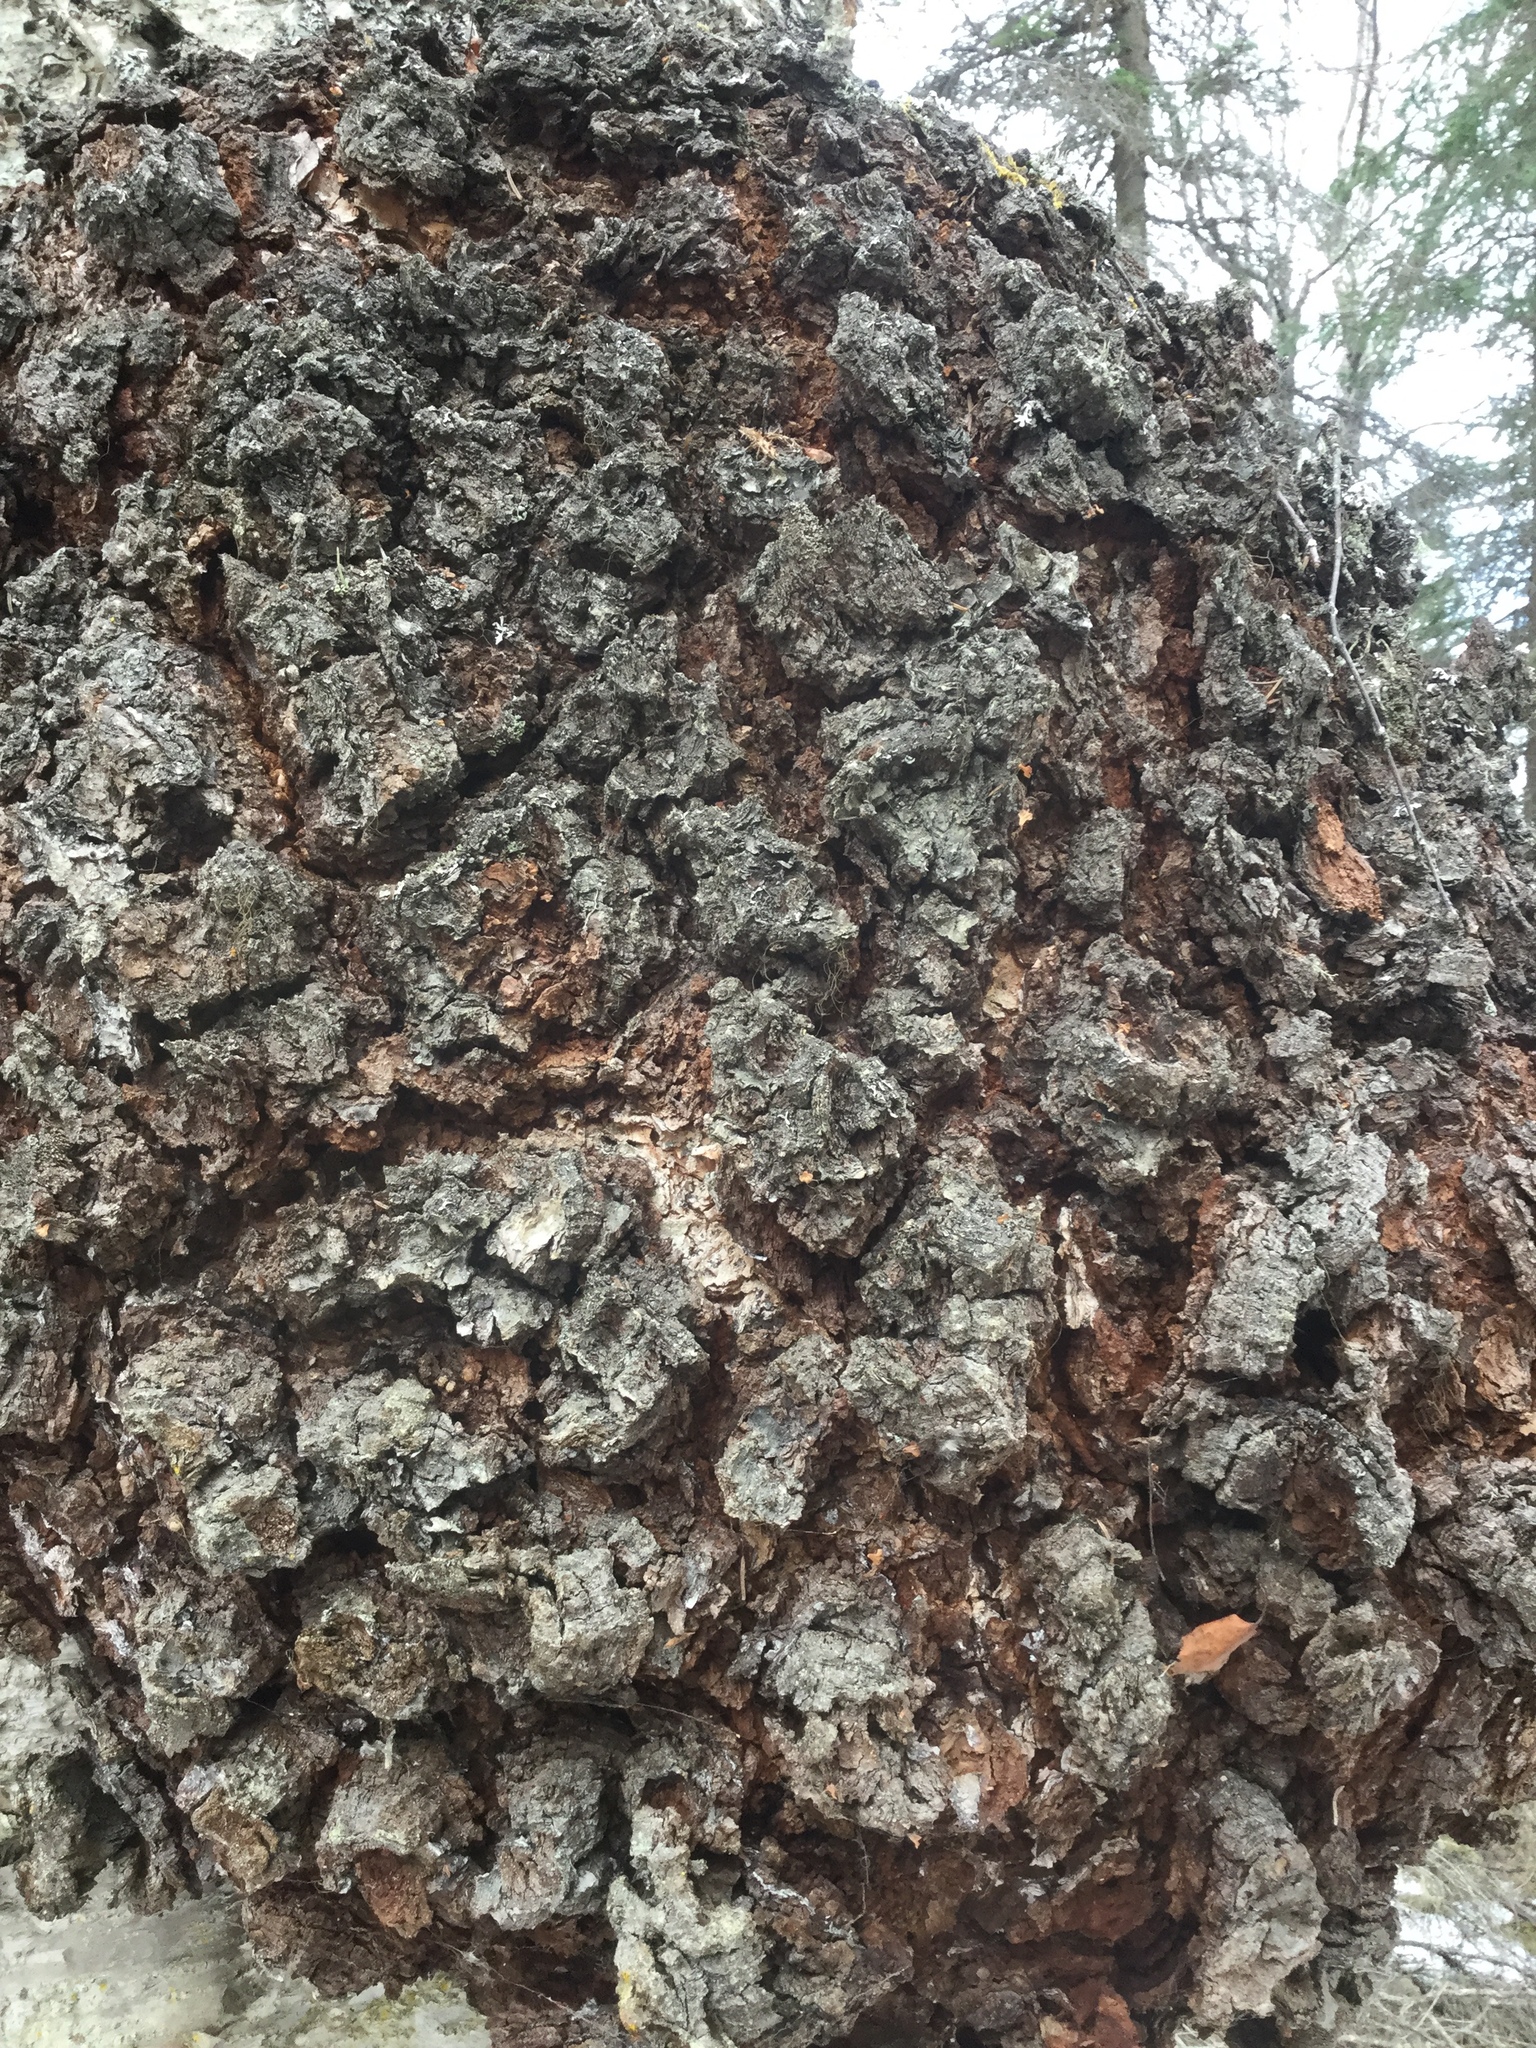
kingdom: Bacteria
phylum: Proteobacteria
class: Alphaproteobacteria
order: Rhizobiales
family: Rhizobiaceae
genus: Rhizobium
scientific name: Rhizobium Agrobacterium radiobacter
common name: Bacterial crown gall
